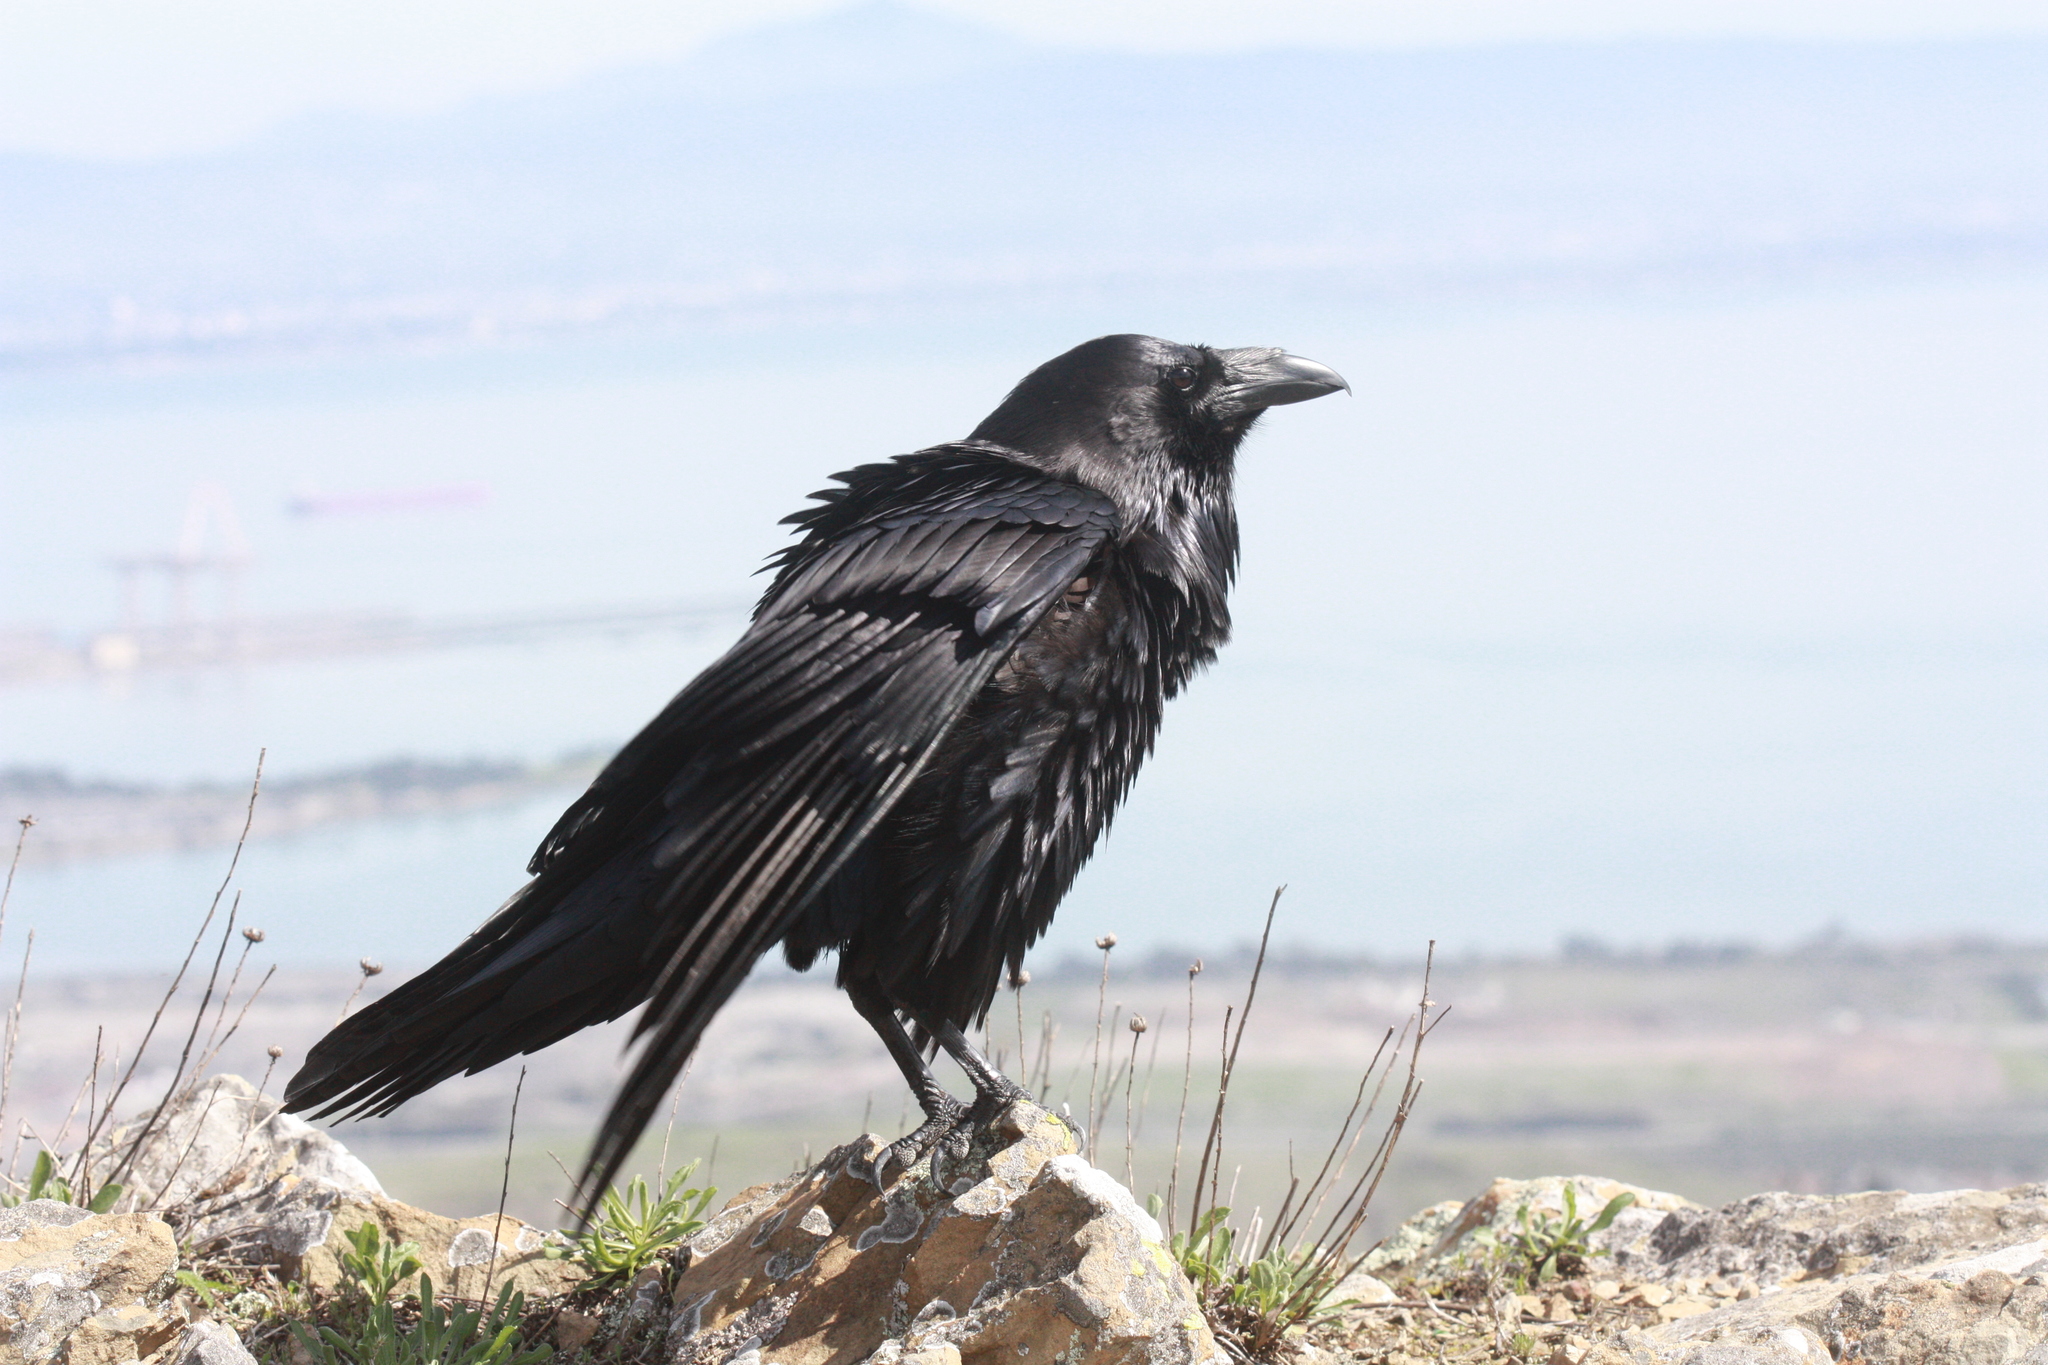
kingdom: Animalia
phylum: Chordata
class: Aves
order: Passeriformes
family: Corvidae
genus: Corvus
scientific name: Corvus corax
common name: Common raven
